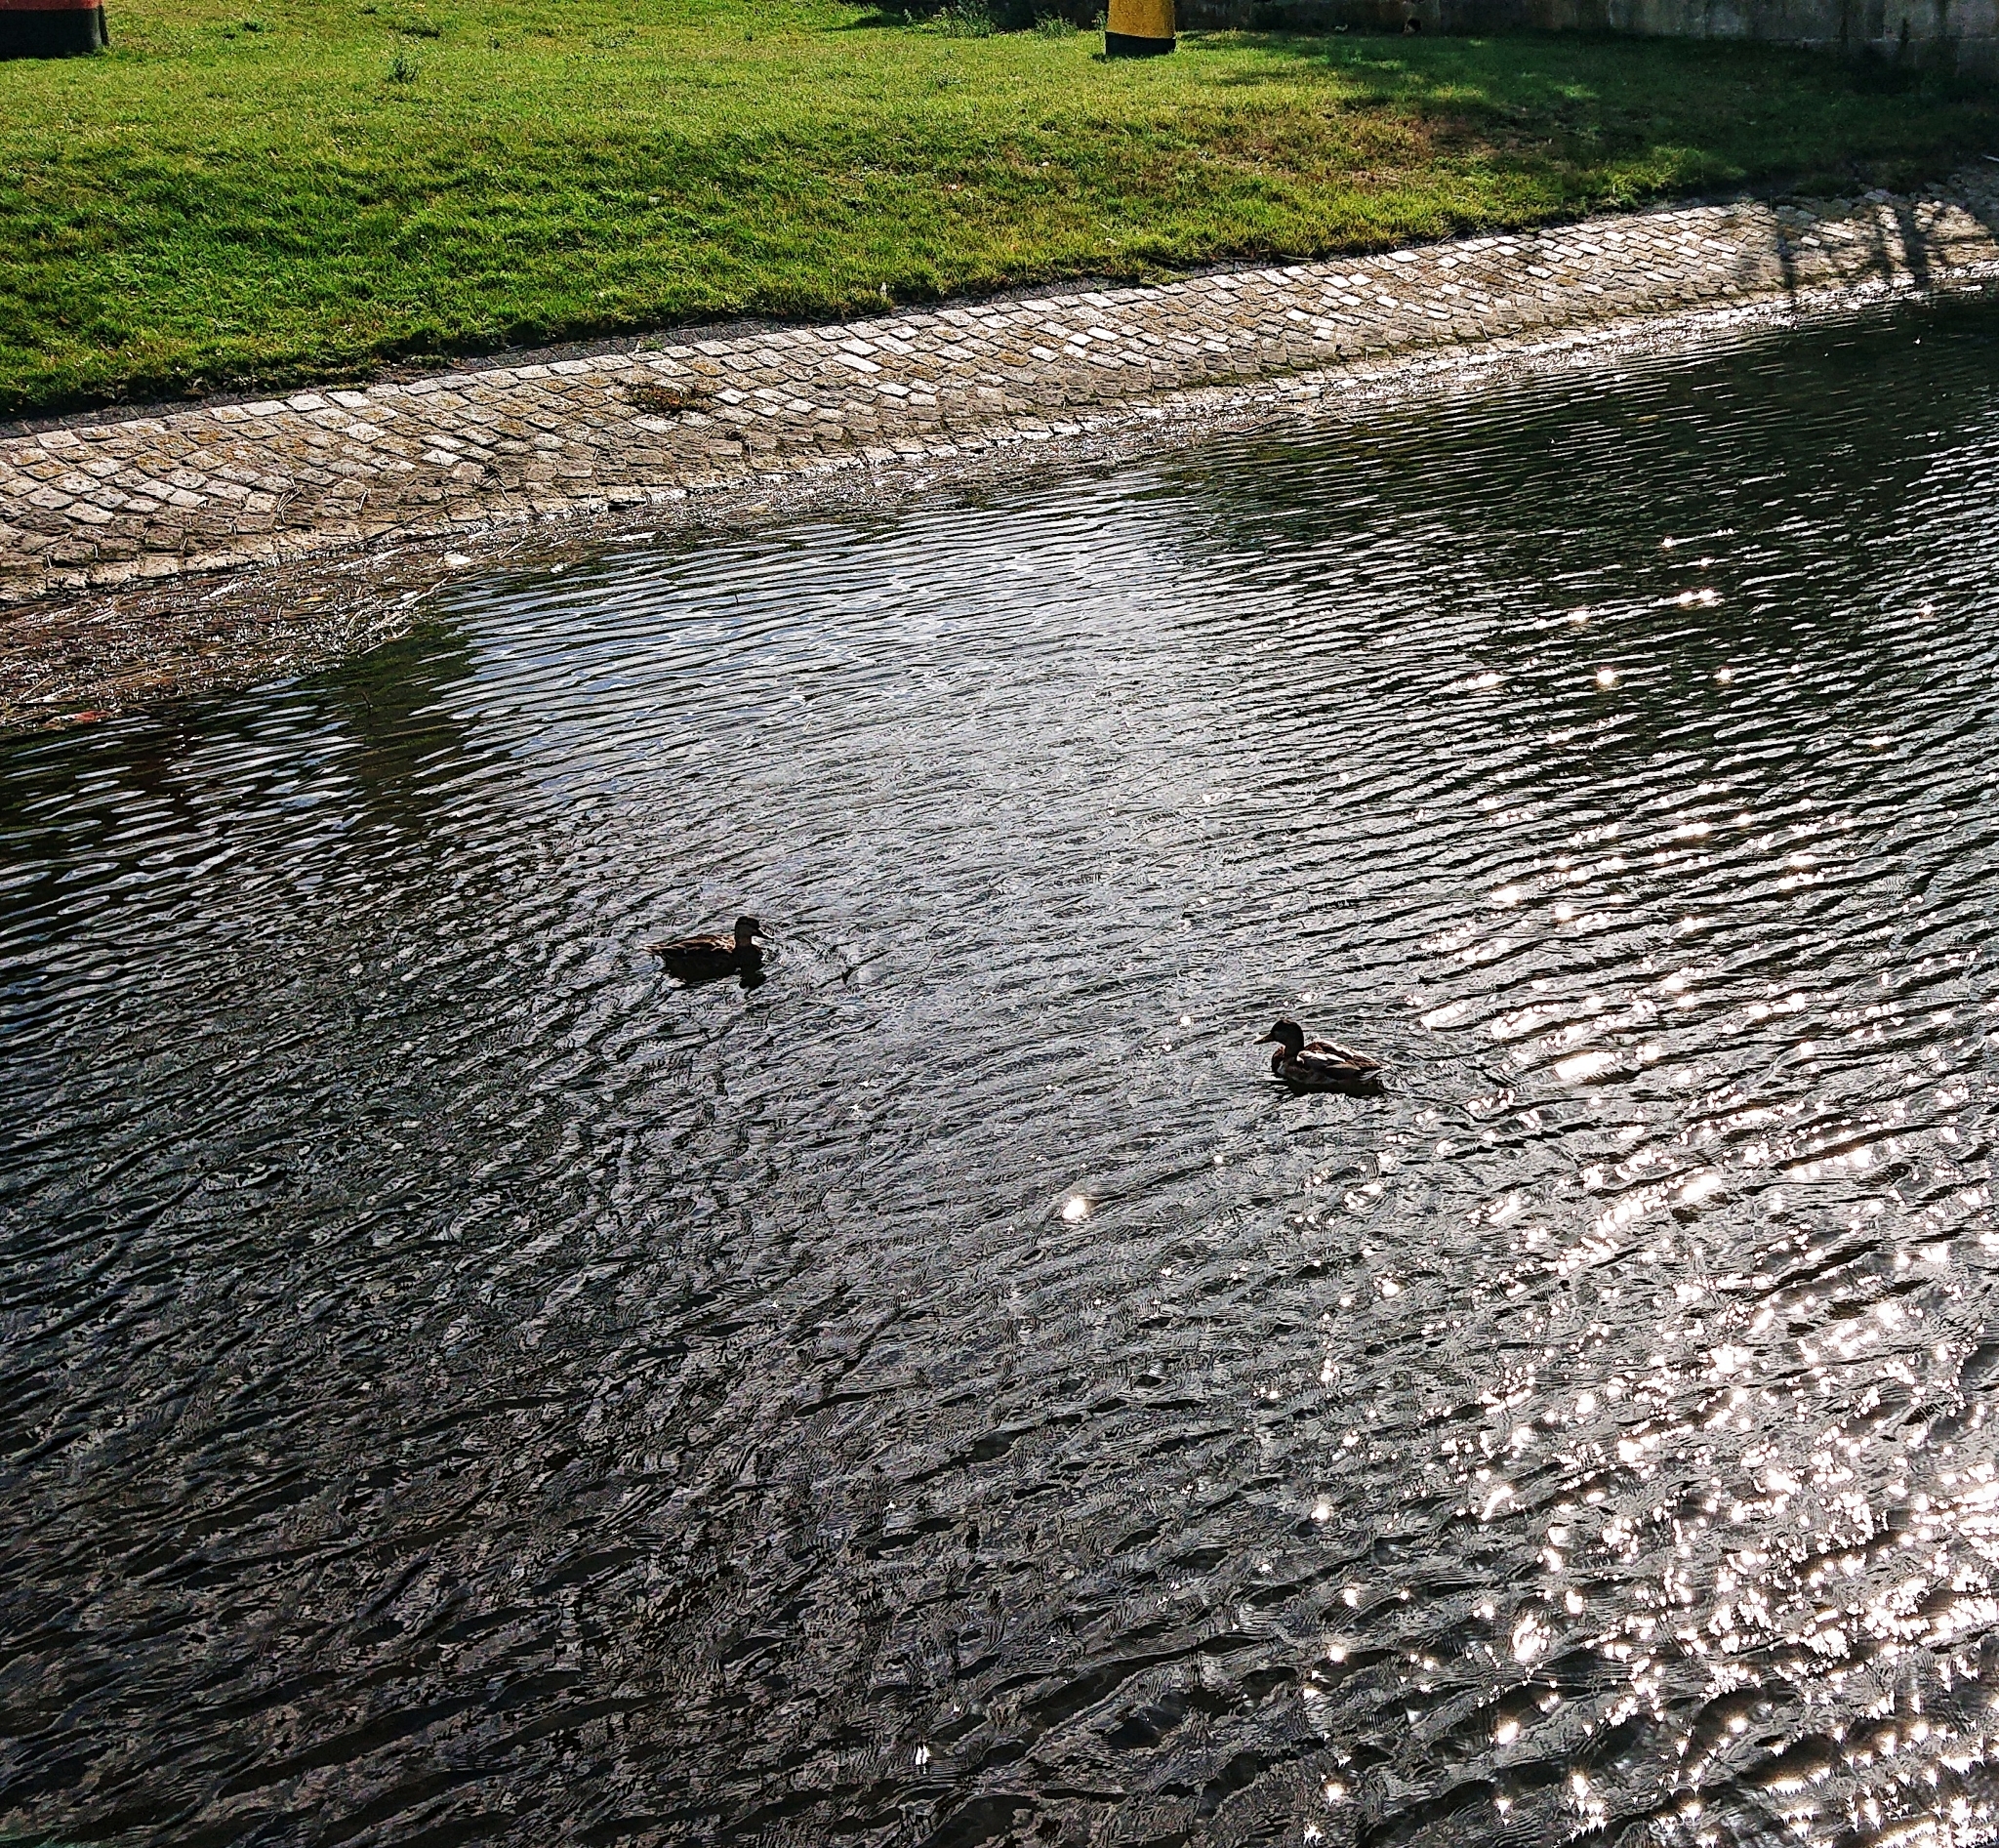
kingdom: Animalia
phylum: Chordata
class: Aves
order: Anseriformes
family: Anatidae
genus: Anas
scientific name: Anas platyrhynchos
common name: Mallard
